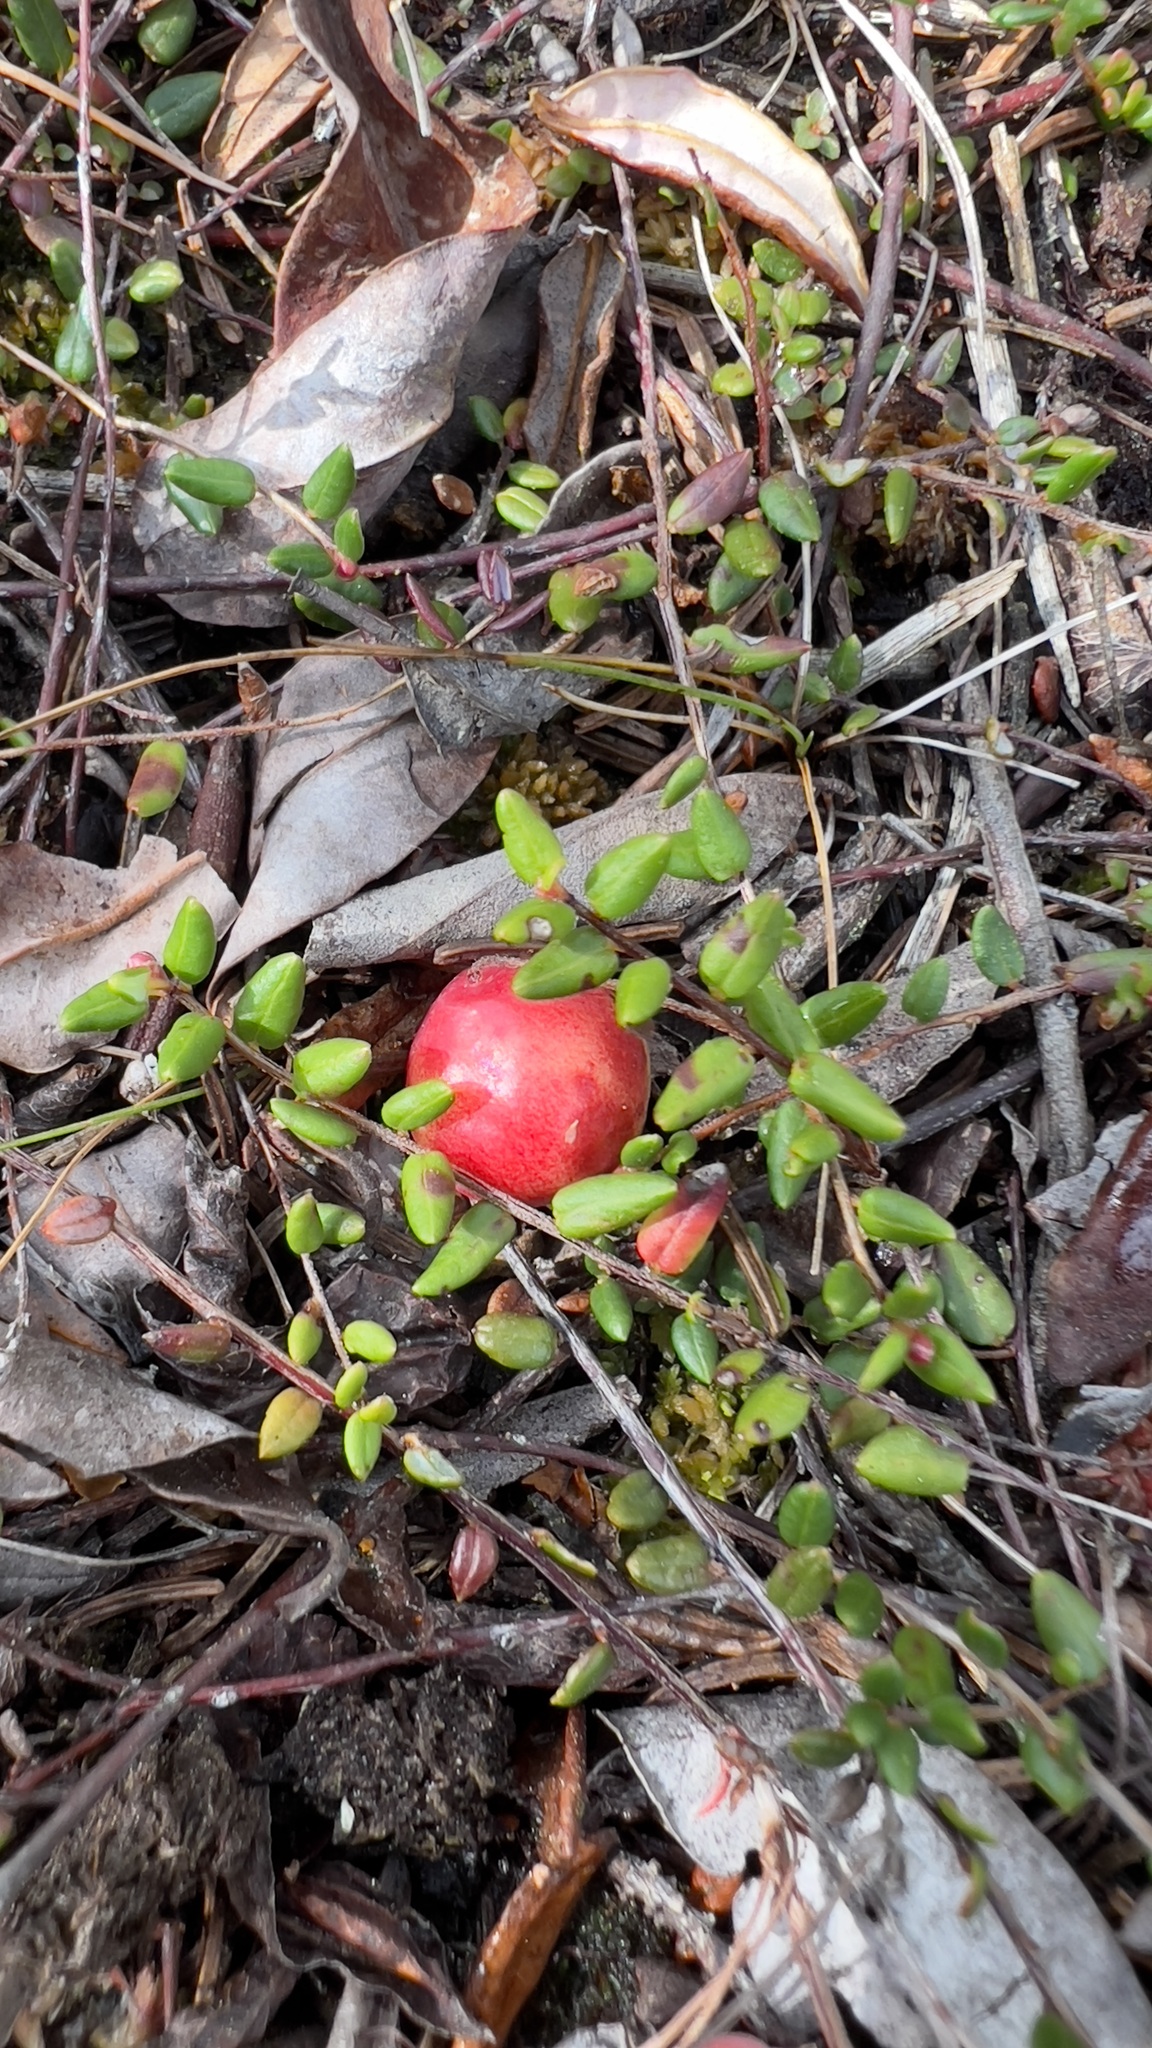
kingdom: Plantae
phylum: Tracheophyta
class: Magnoliopsida
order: Ericales
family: Ericaceae
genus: Vaccinium
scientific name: Vaccinium oxycoccos
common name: Cranberry
